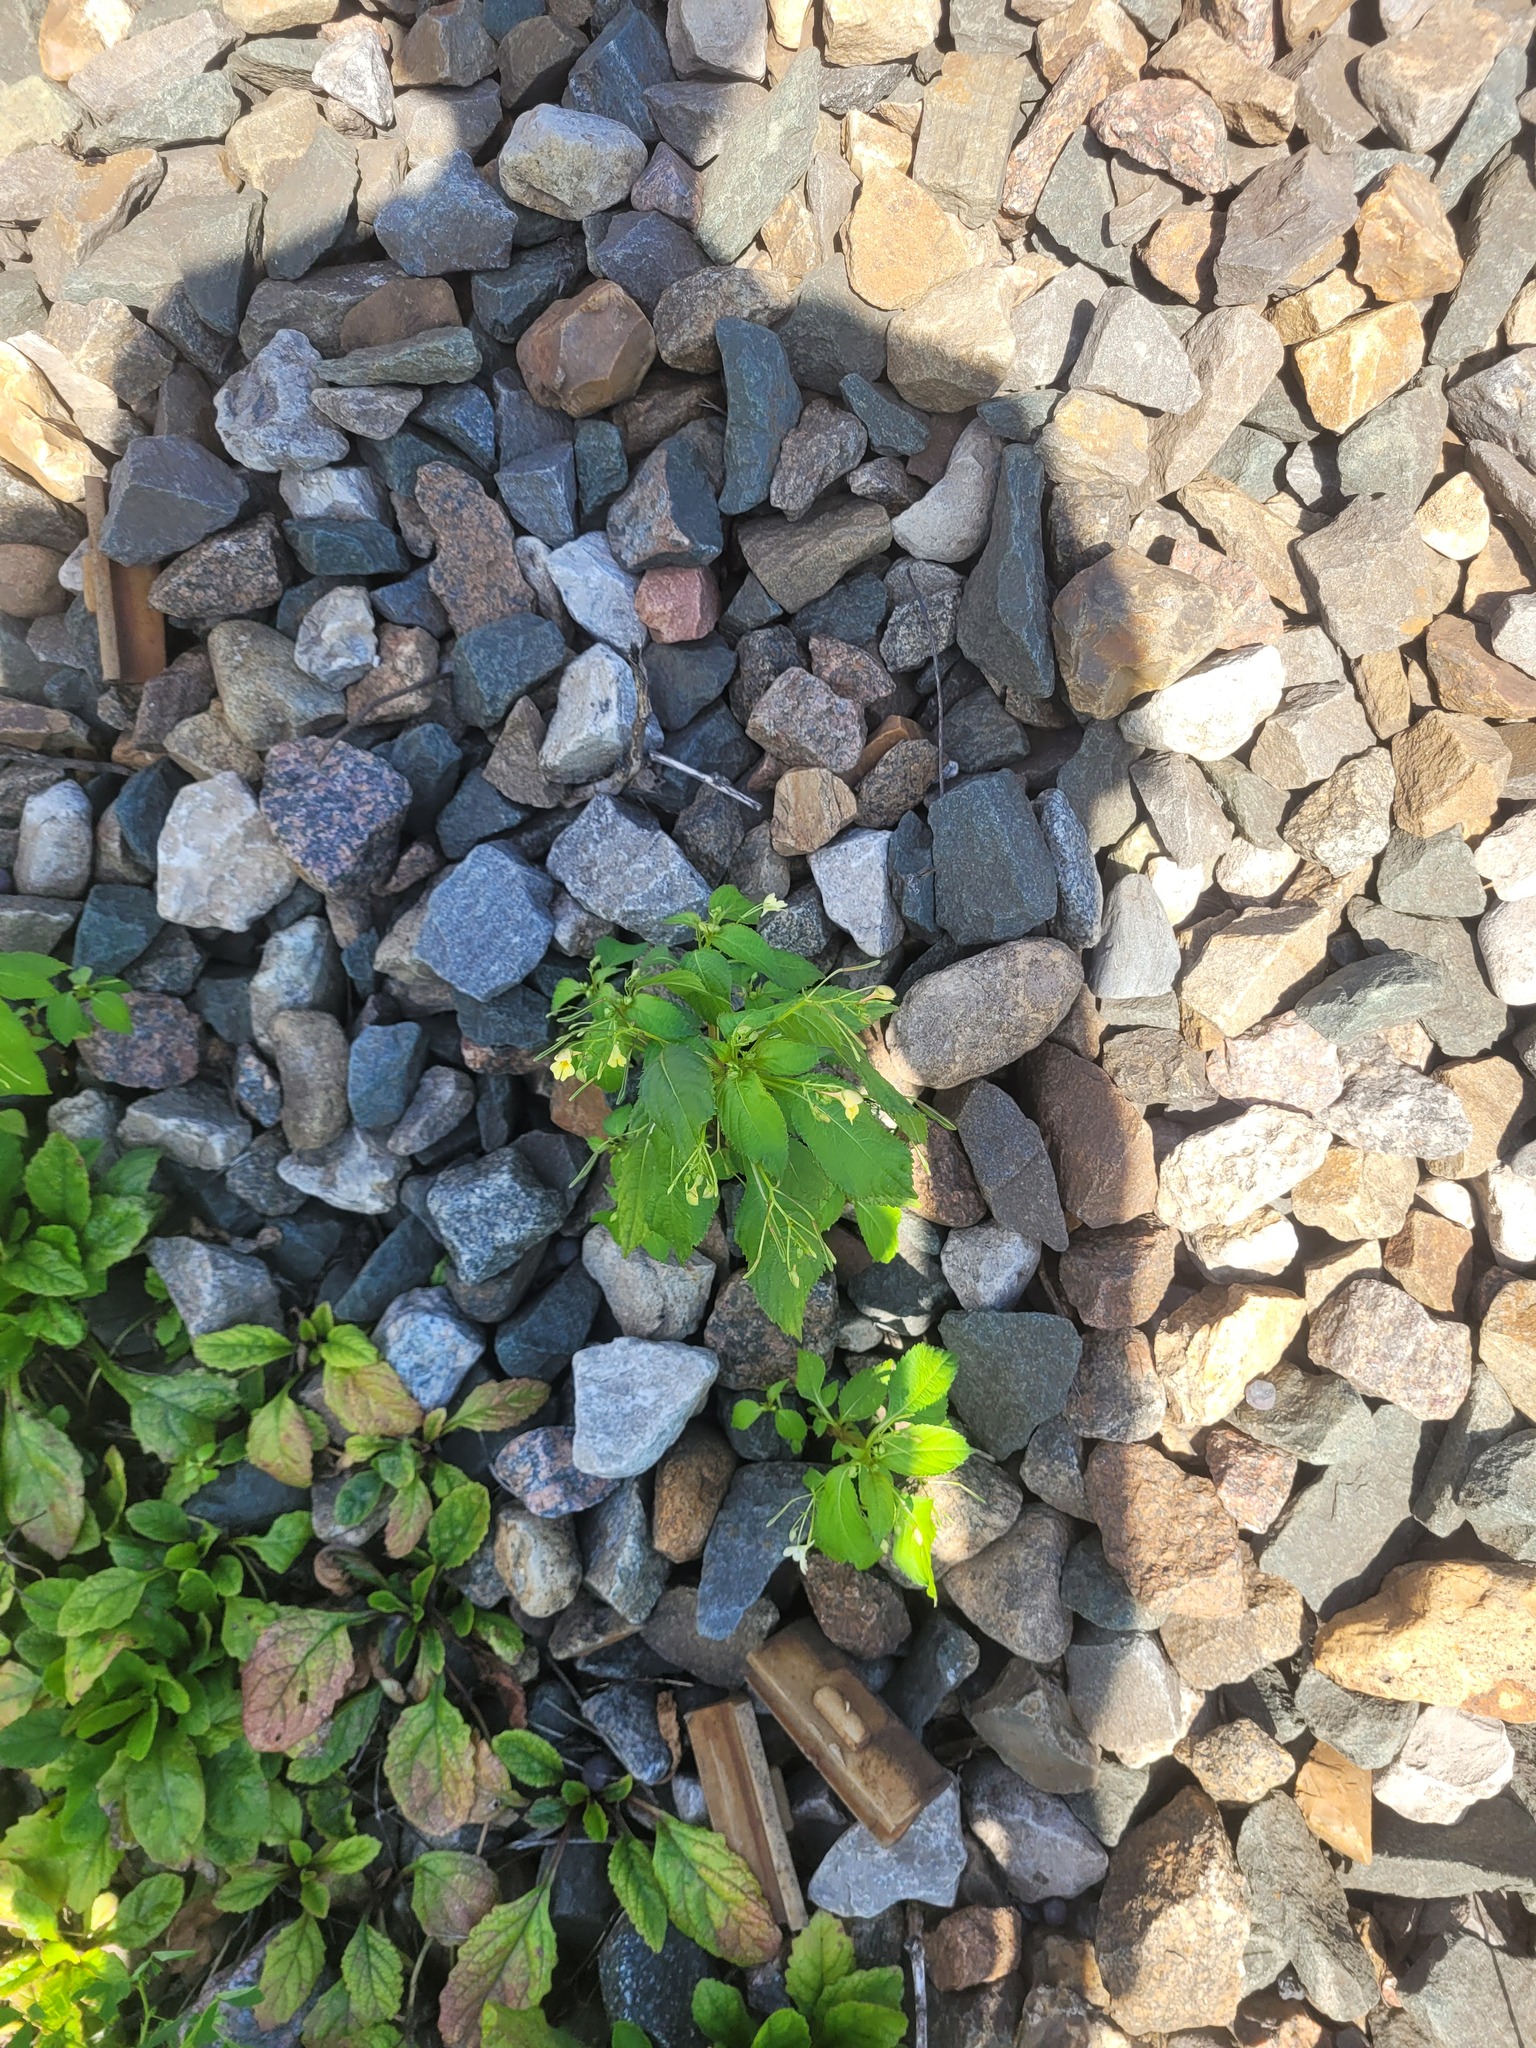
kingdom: Plantae
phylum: Tracheophyta
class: Magnoliopsida
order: Ericales
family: Balsaminaceae
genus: Impatiens
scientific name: Impatiens parviflora
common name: Small balsam
